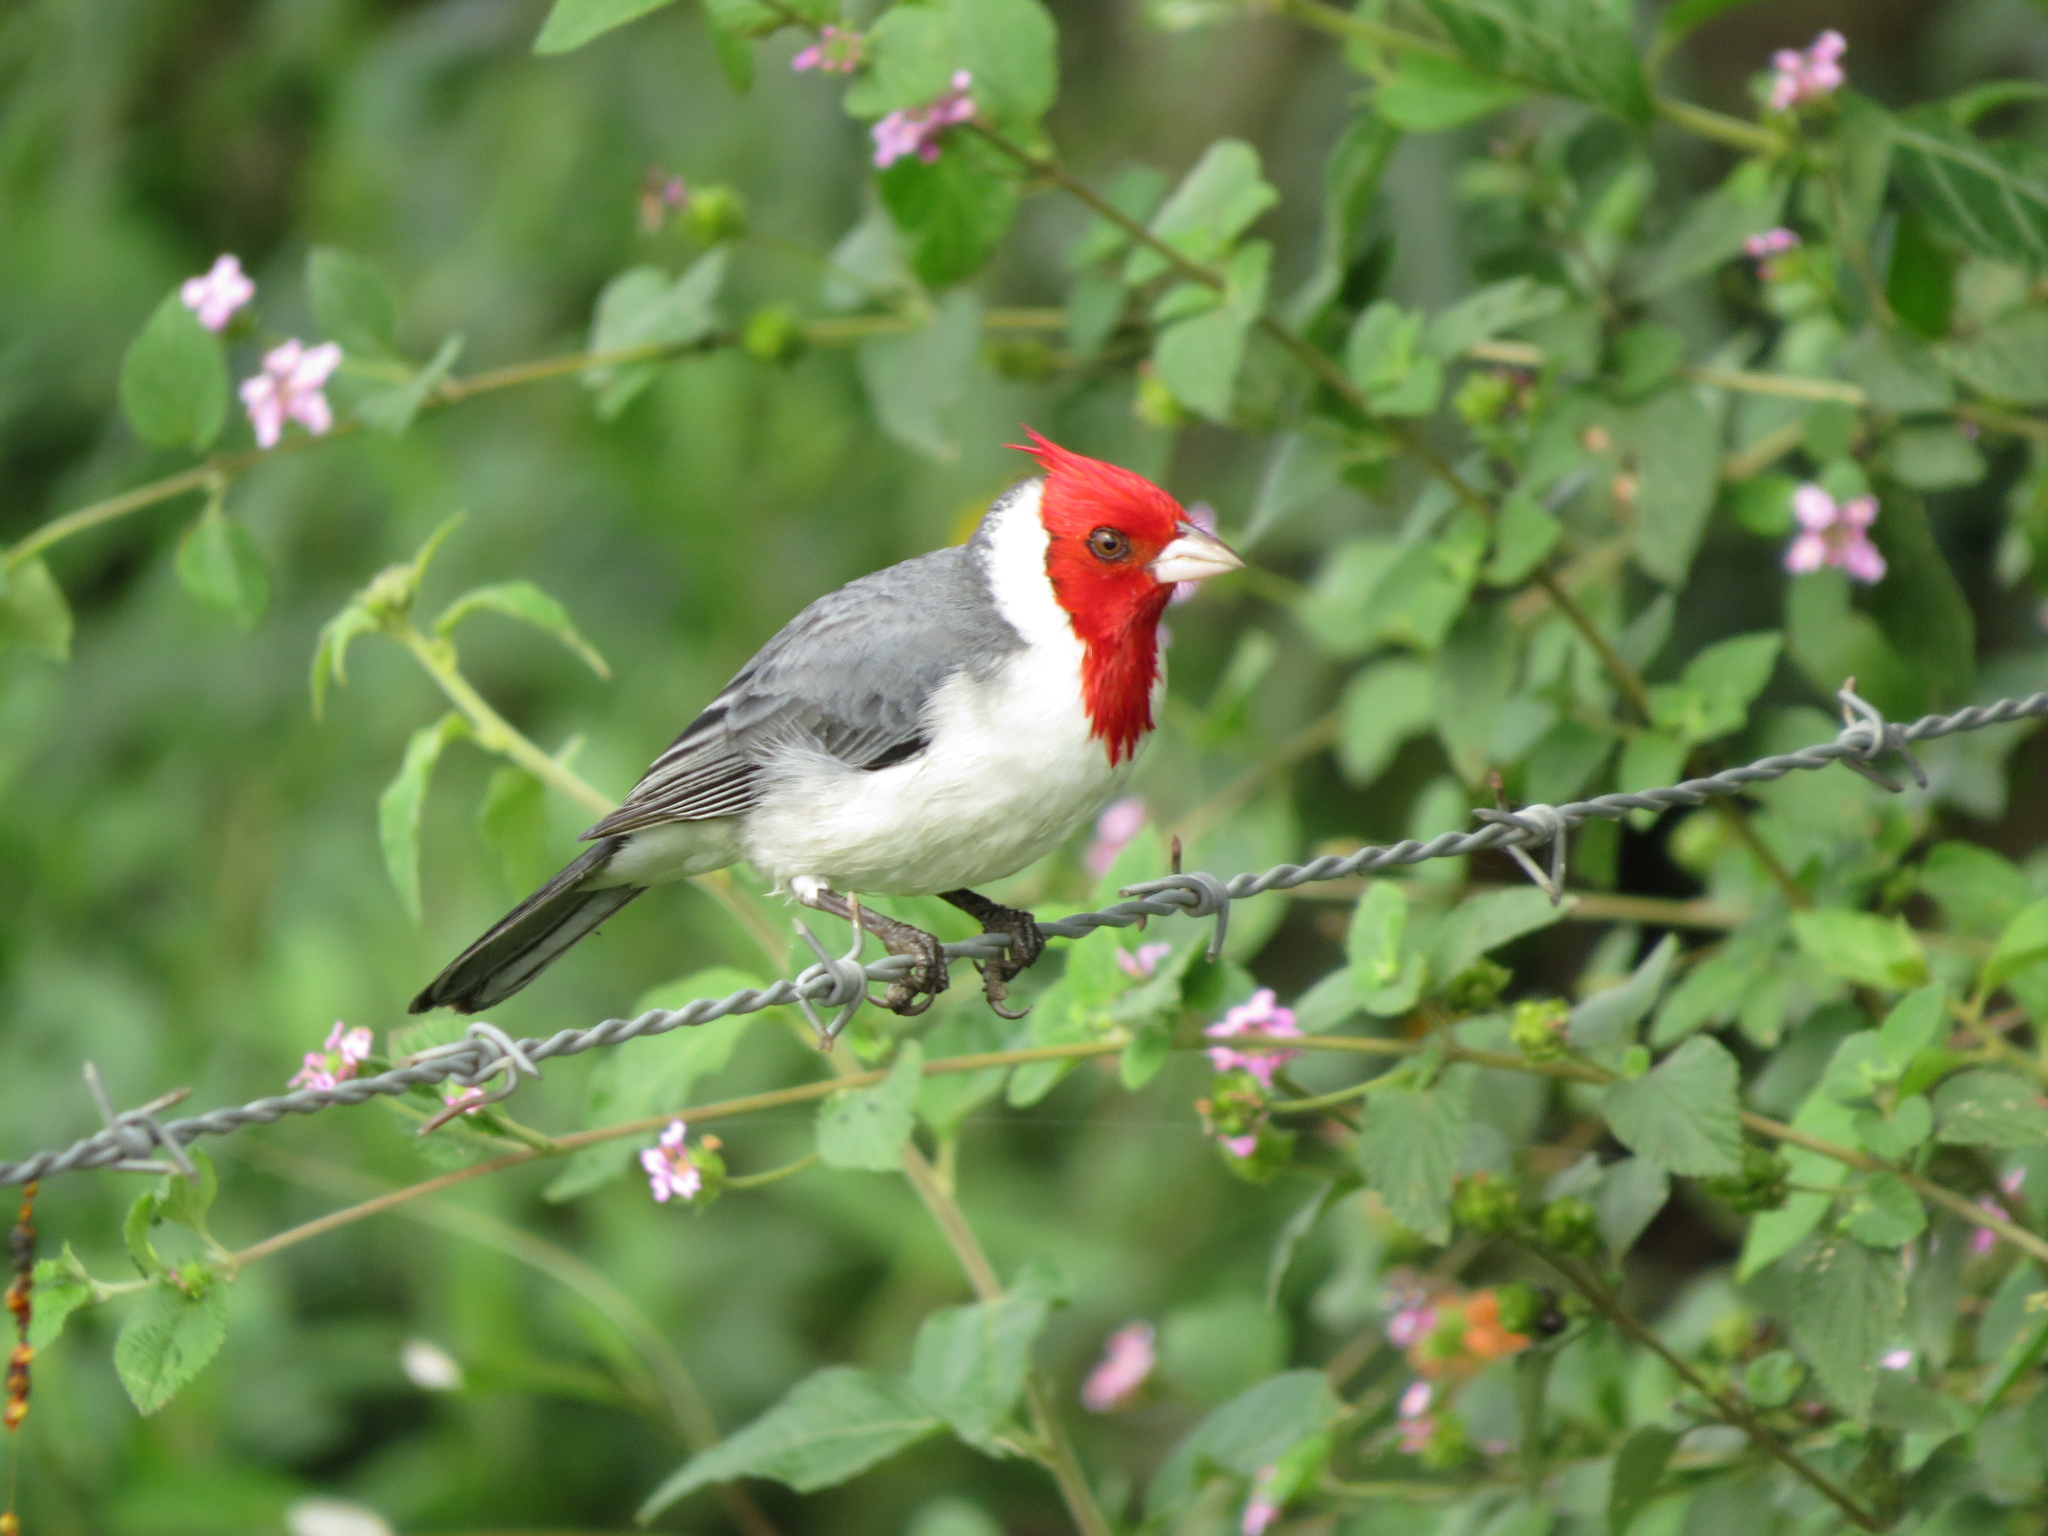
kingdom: Animalia
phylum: Chordata
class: Aves
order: Passeriformes
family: Thraupidae
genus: Paroaria
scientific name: Paroaria coronata
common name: Red-crested cardinal
